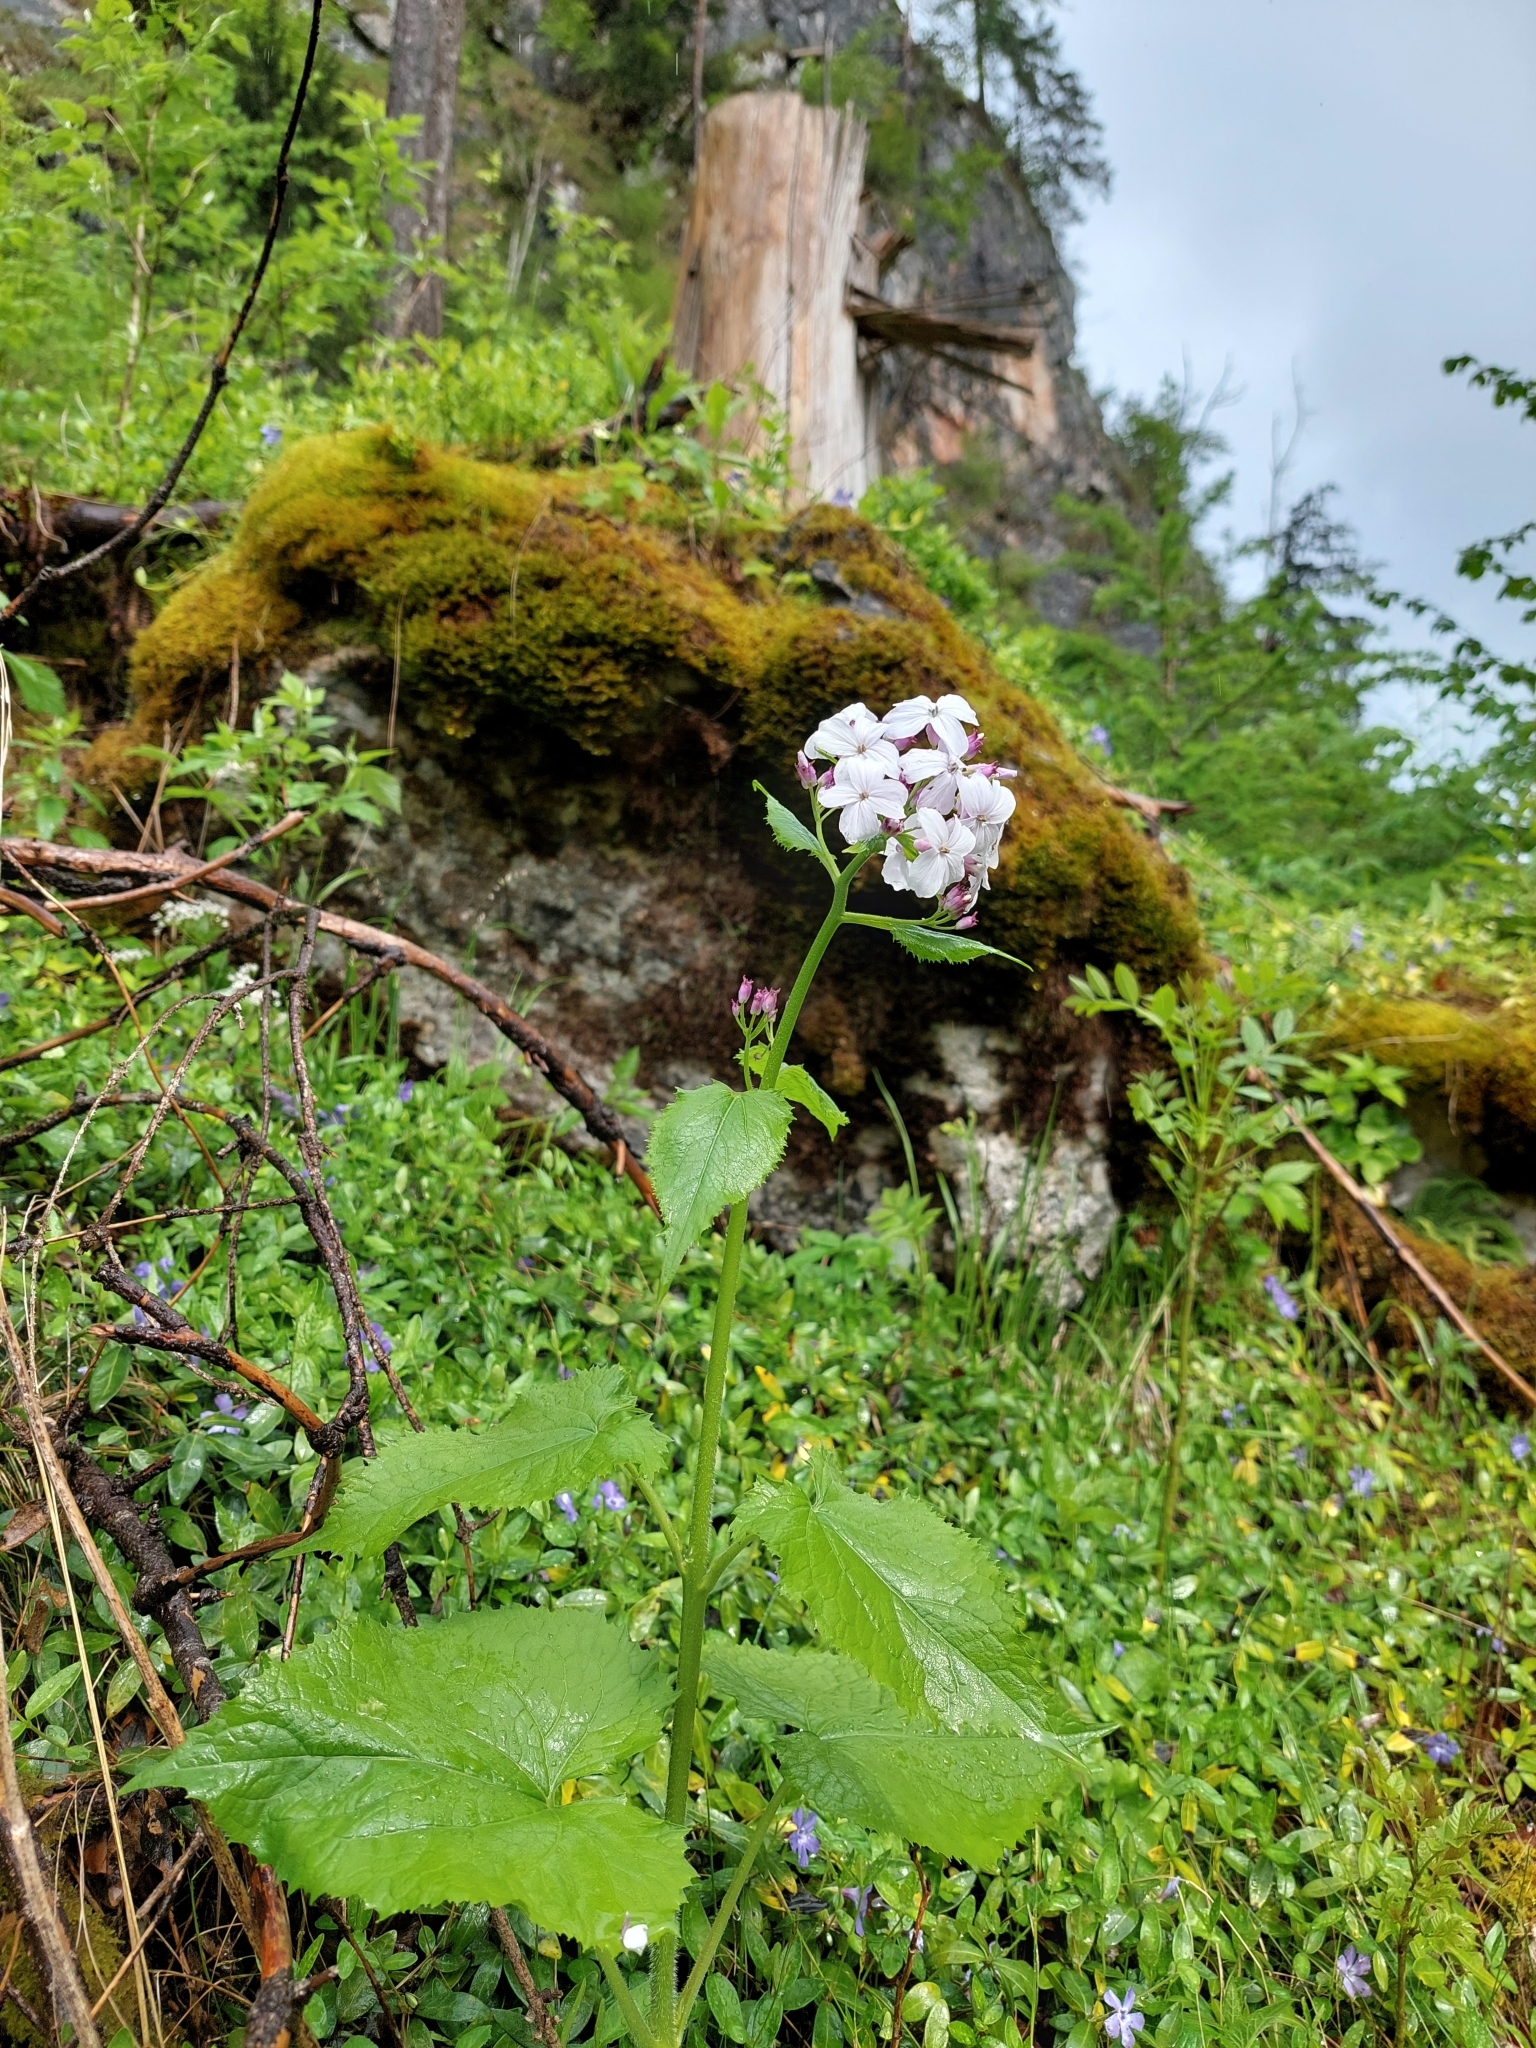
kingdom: Plantae
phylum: Tracheophyta
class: Magnoliopsida
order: Brassicales
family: Brassicaceae
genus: Lunaria
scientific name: Lunaria rediviva
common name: Perennial honesty
